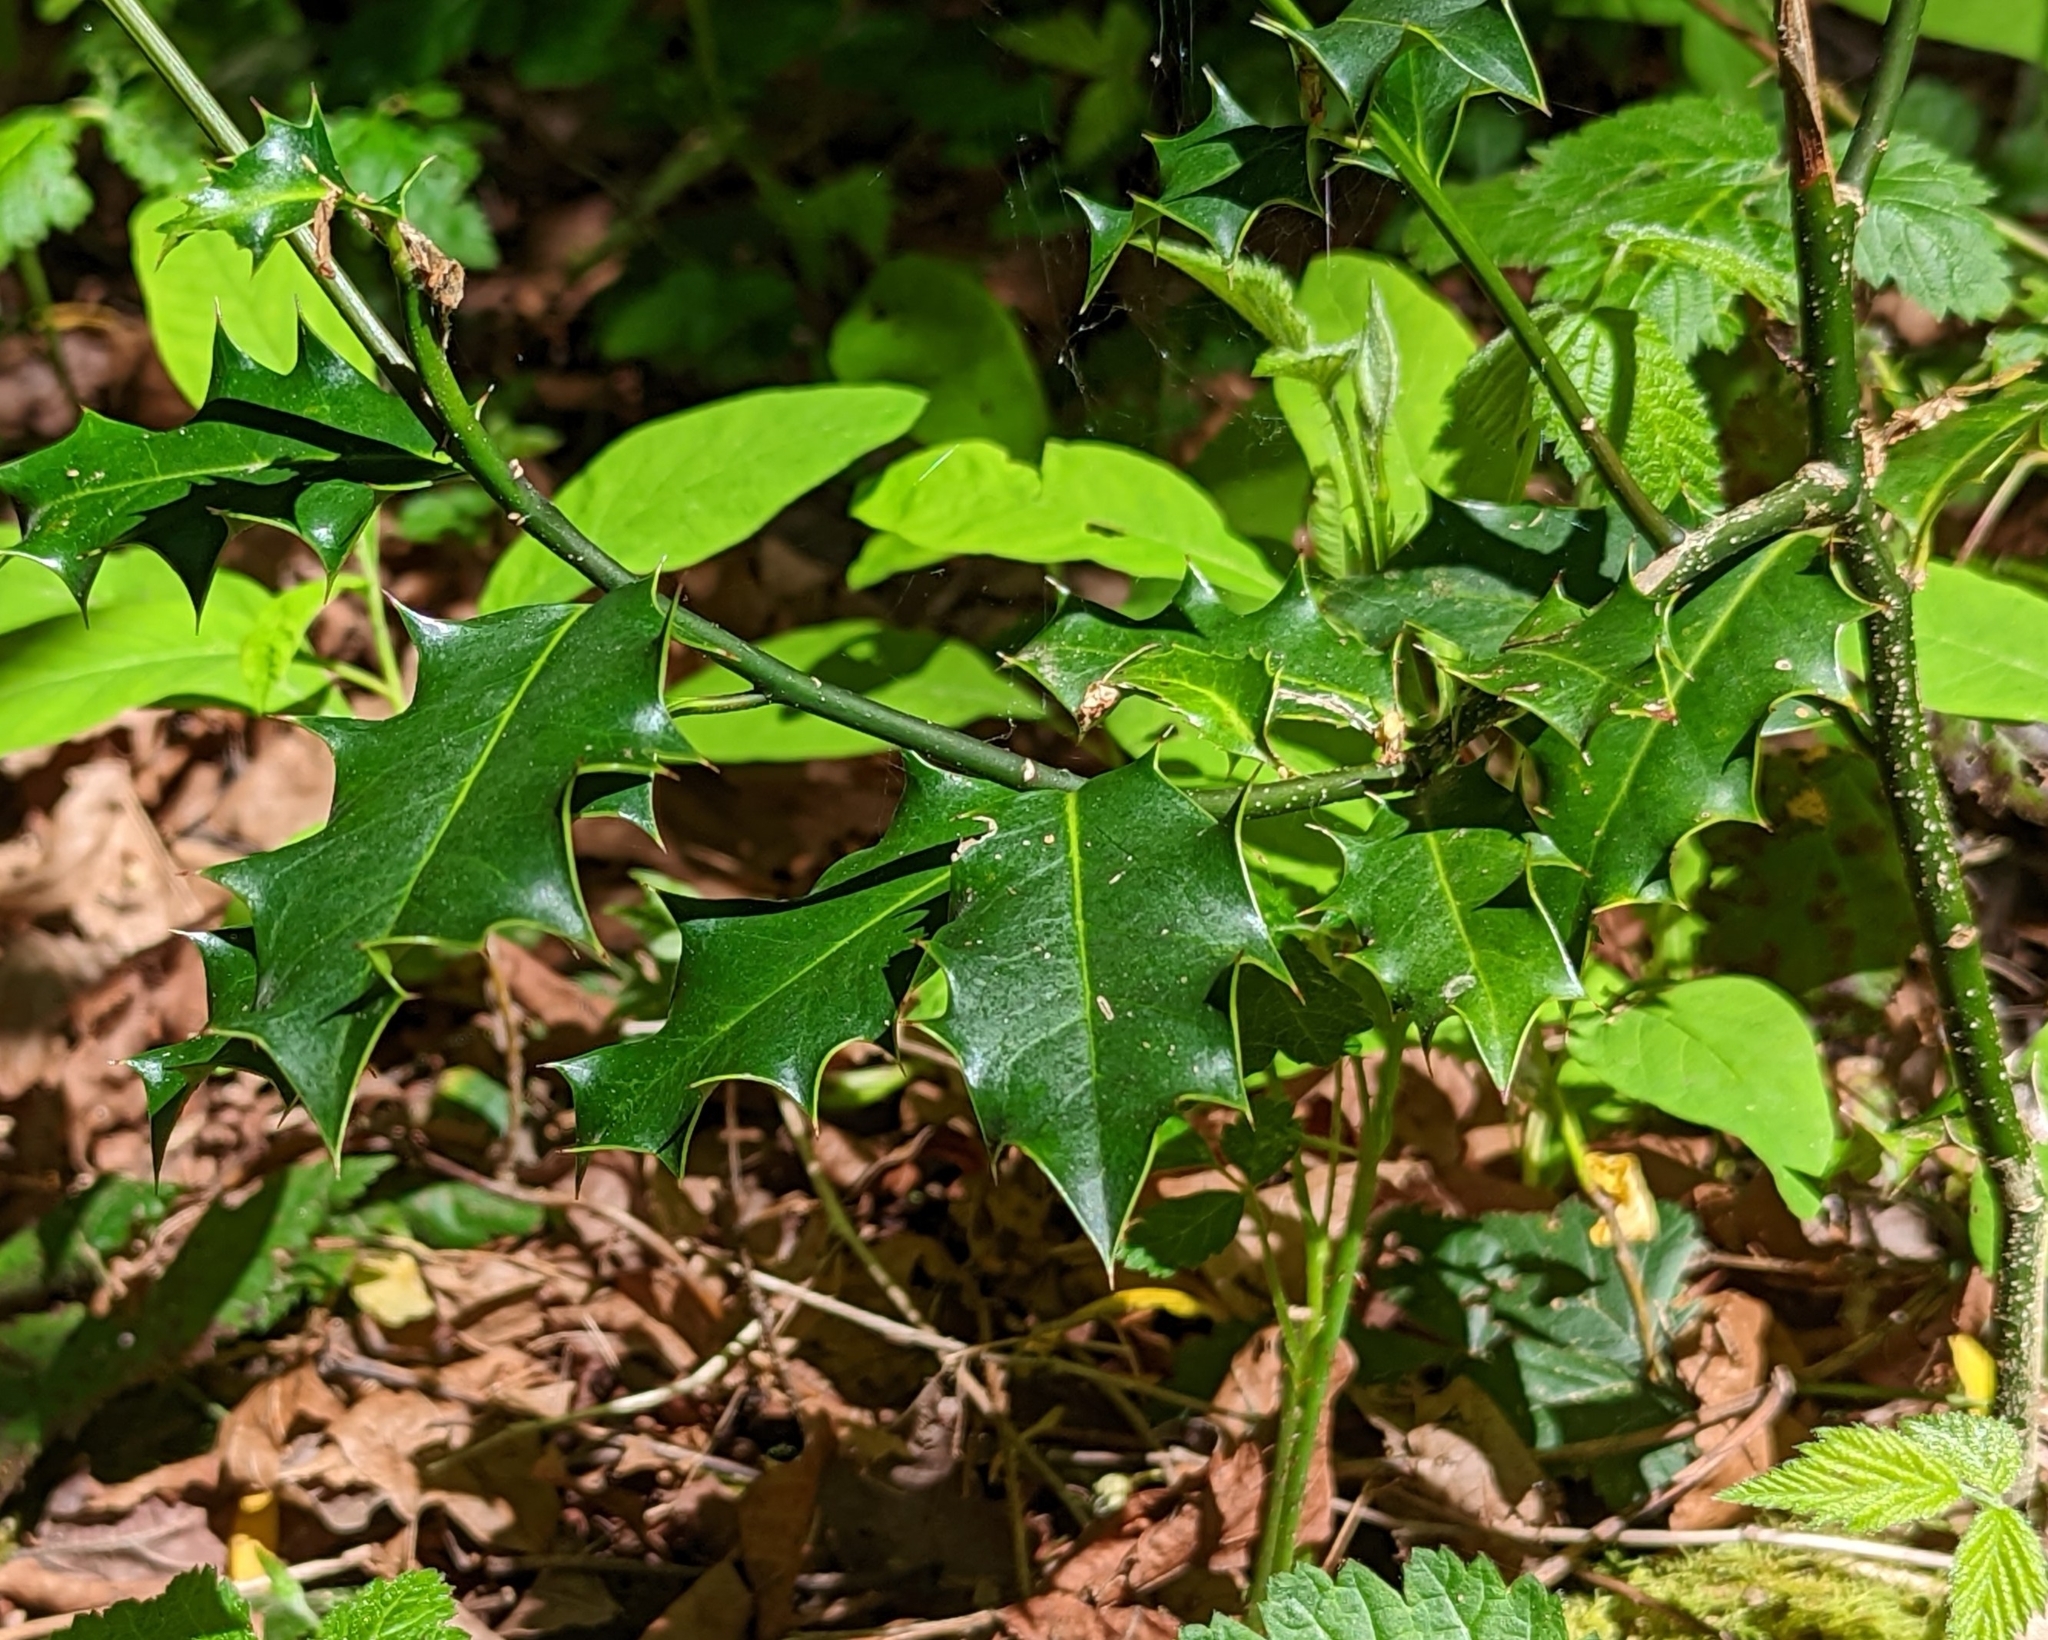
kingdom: Plantae
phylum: Tracheophyta
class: Magnoliopsida
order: Aquifoliales
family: Aquifoliaceae
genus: Ilex
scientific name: Ilex aquifolium
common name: English holly
